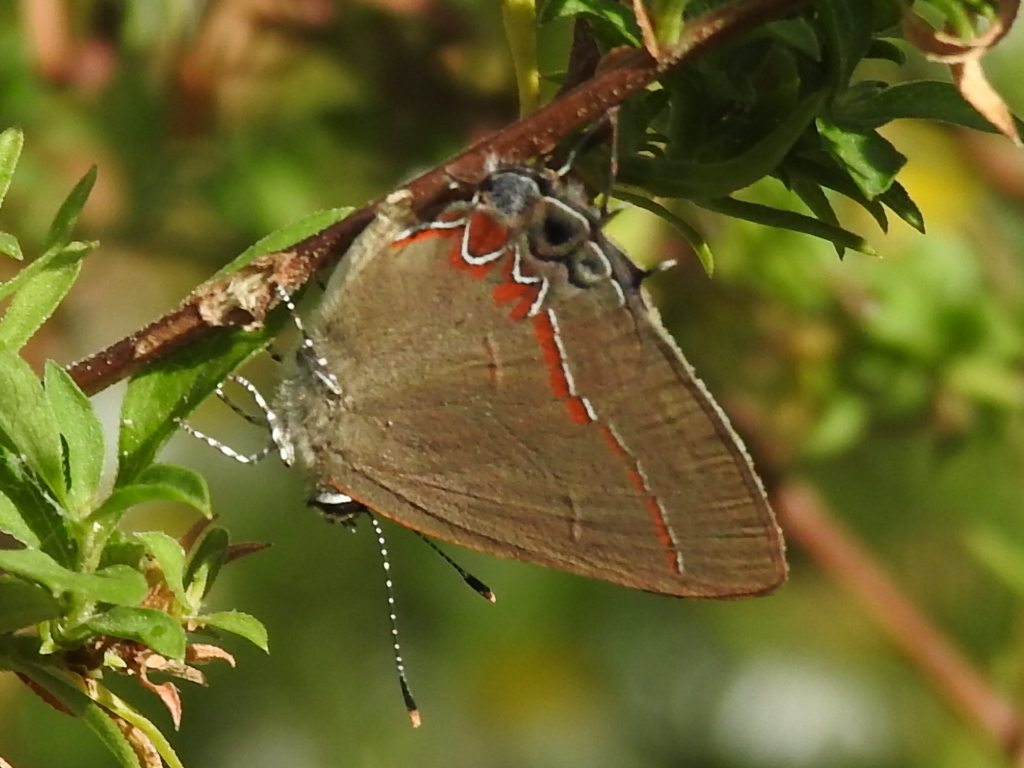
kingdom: Animalia
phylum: Arthropoda
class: Insecta
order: Lepidoptera
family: Lycaenidae
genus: Calycopis
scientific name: Calycopis isobeon
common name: Dusky-blue groundstreak
